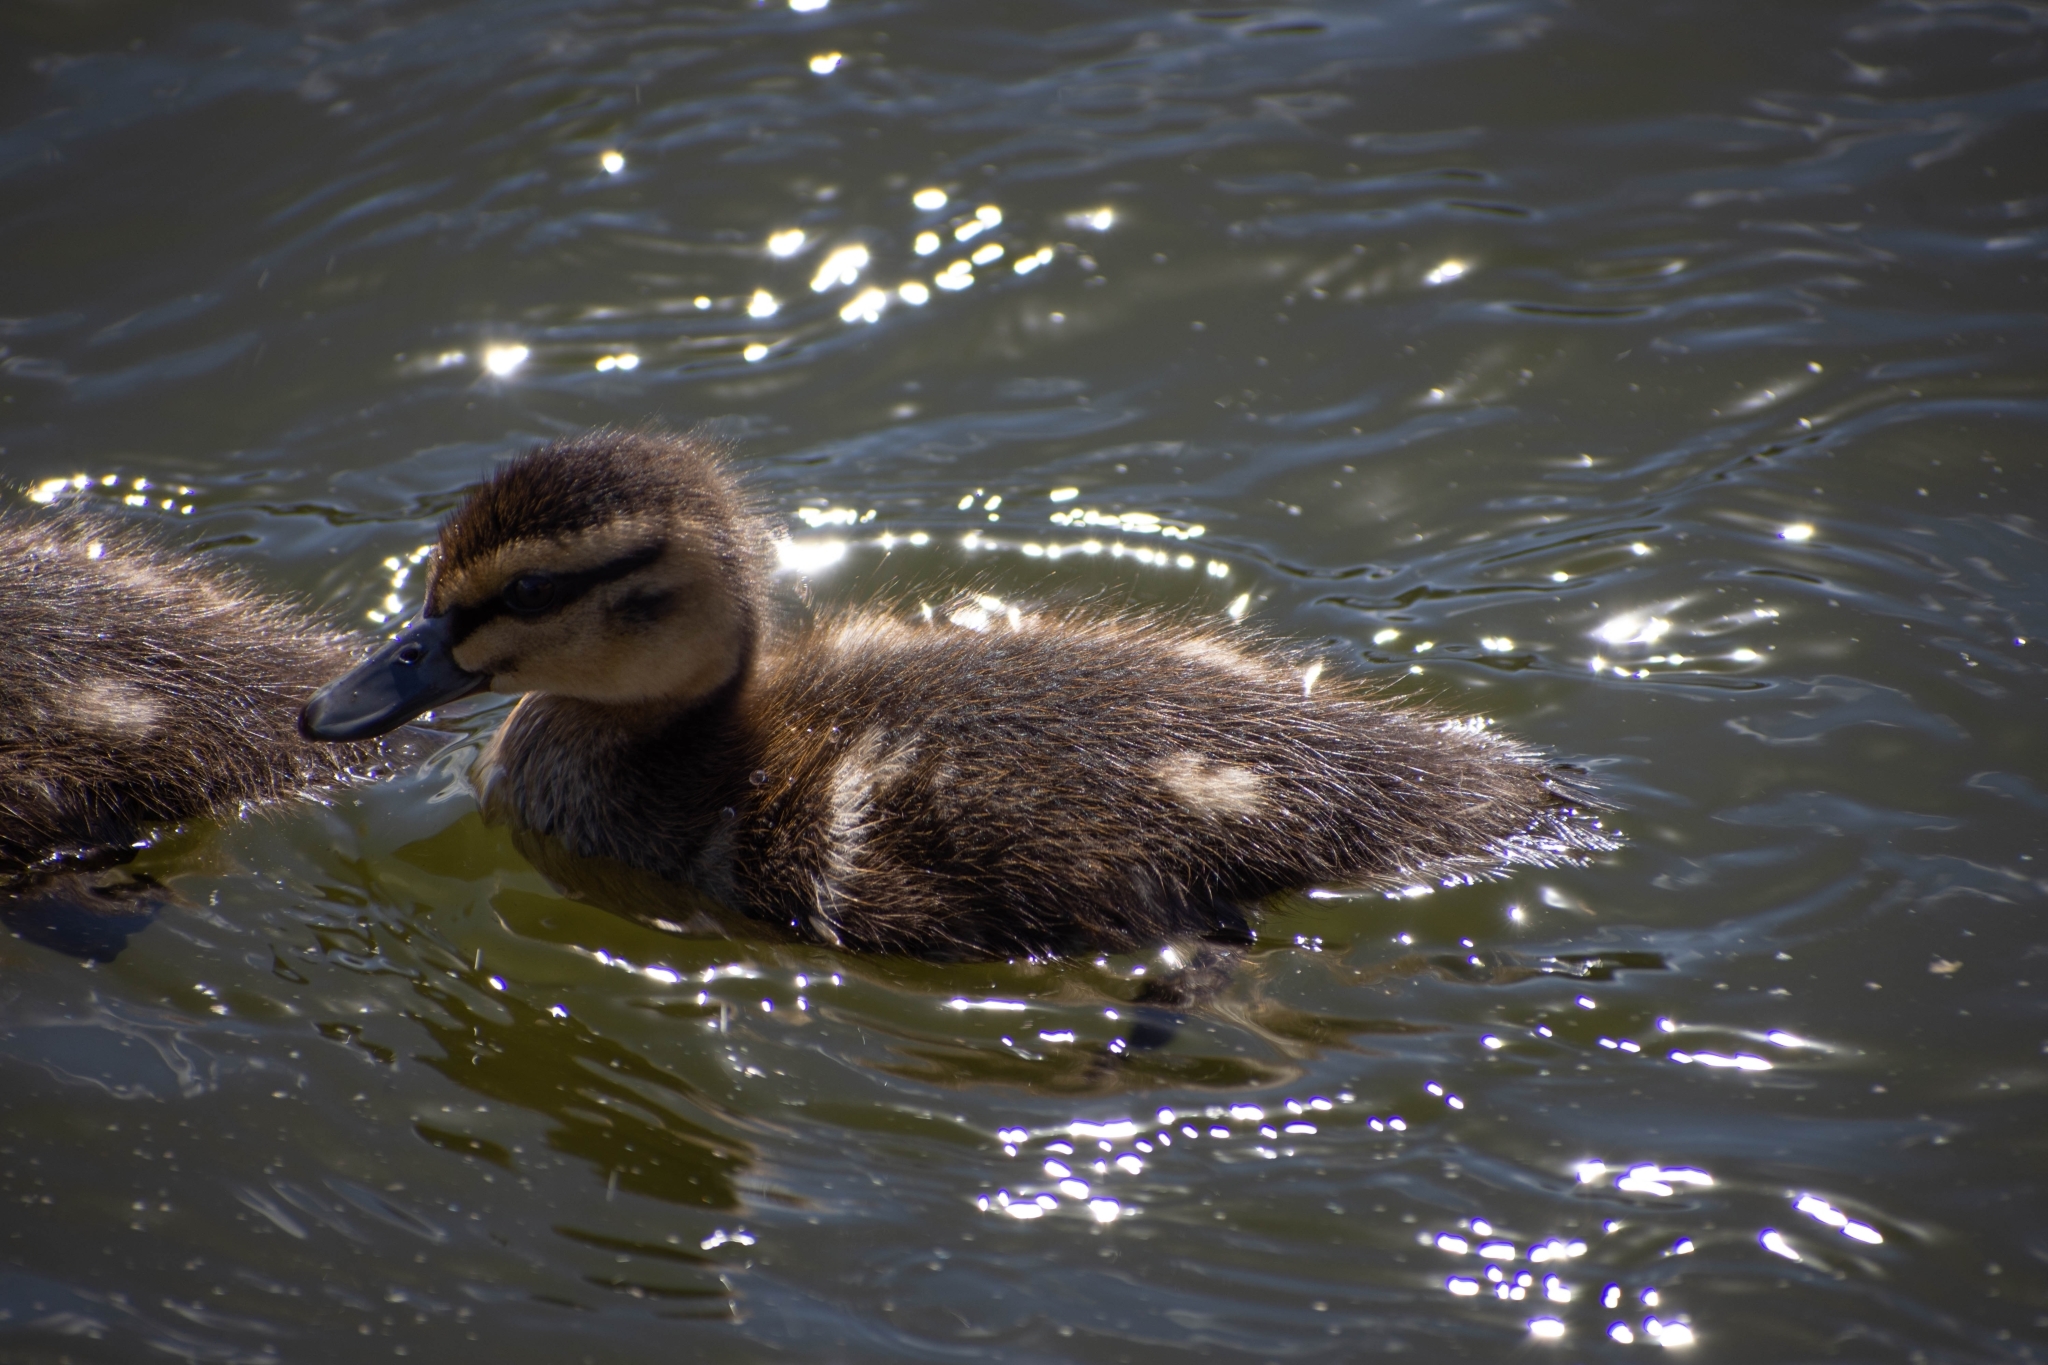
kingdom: Animalia
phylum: Chordata
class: Aves
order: Anseriformes
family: Anatidae
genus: Anas
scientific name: Anas superciliosa
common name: Pacific black duck
